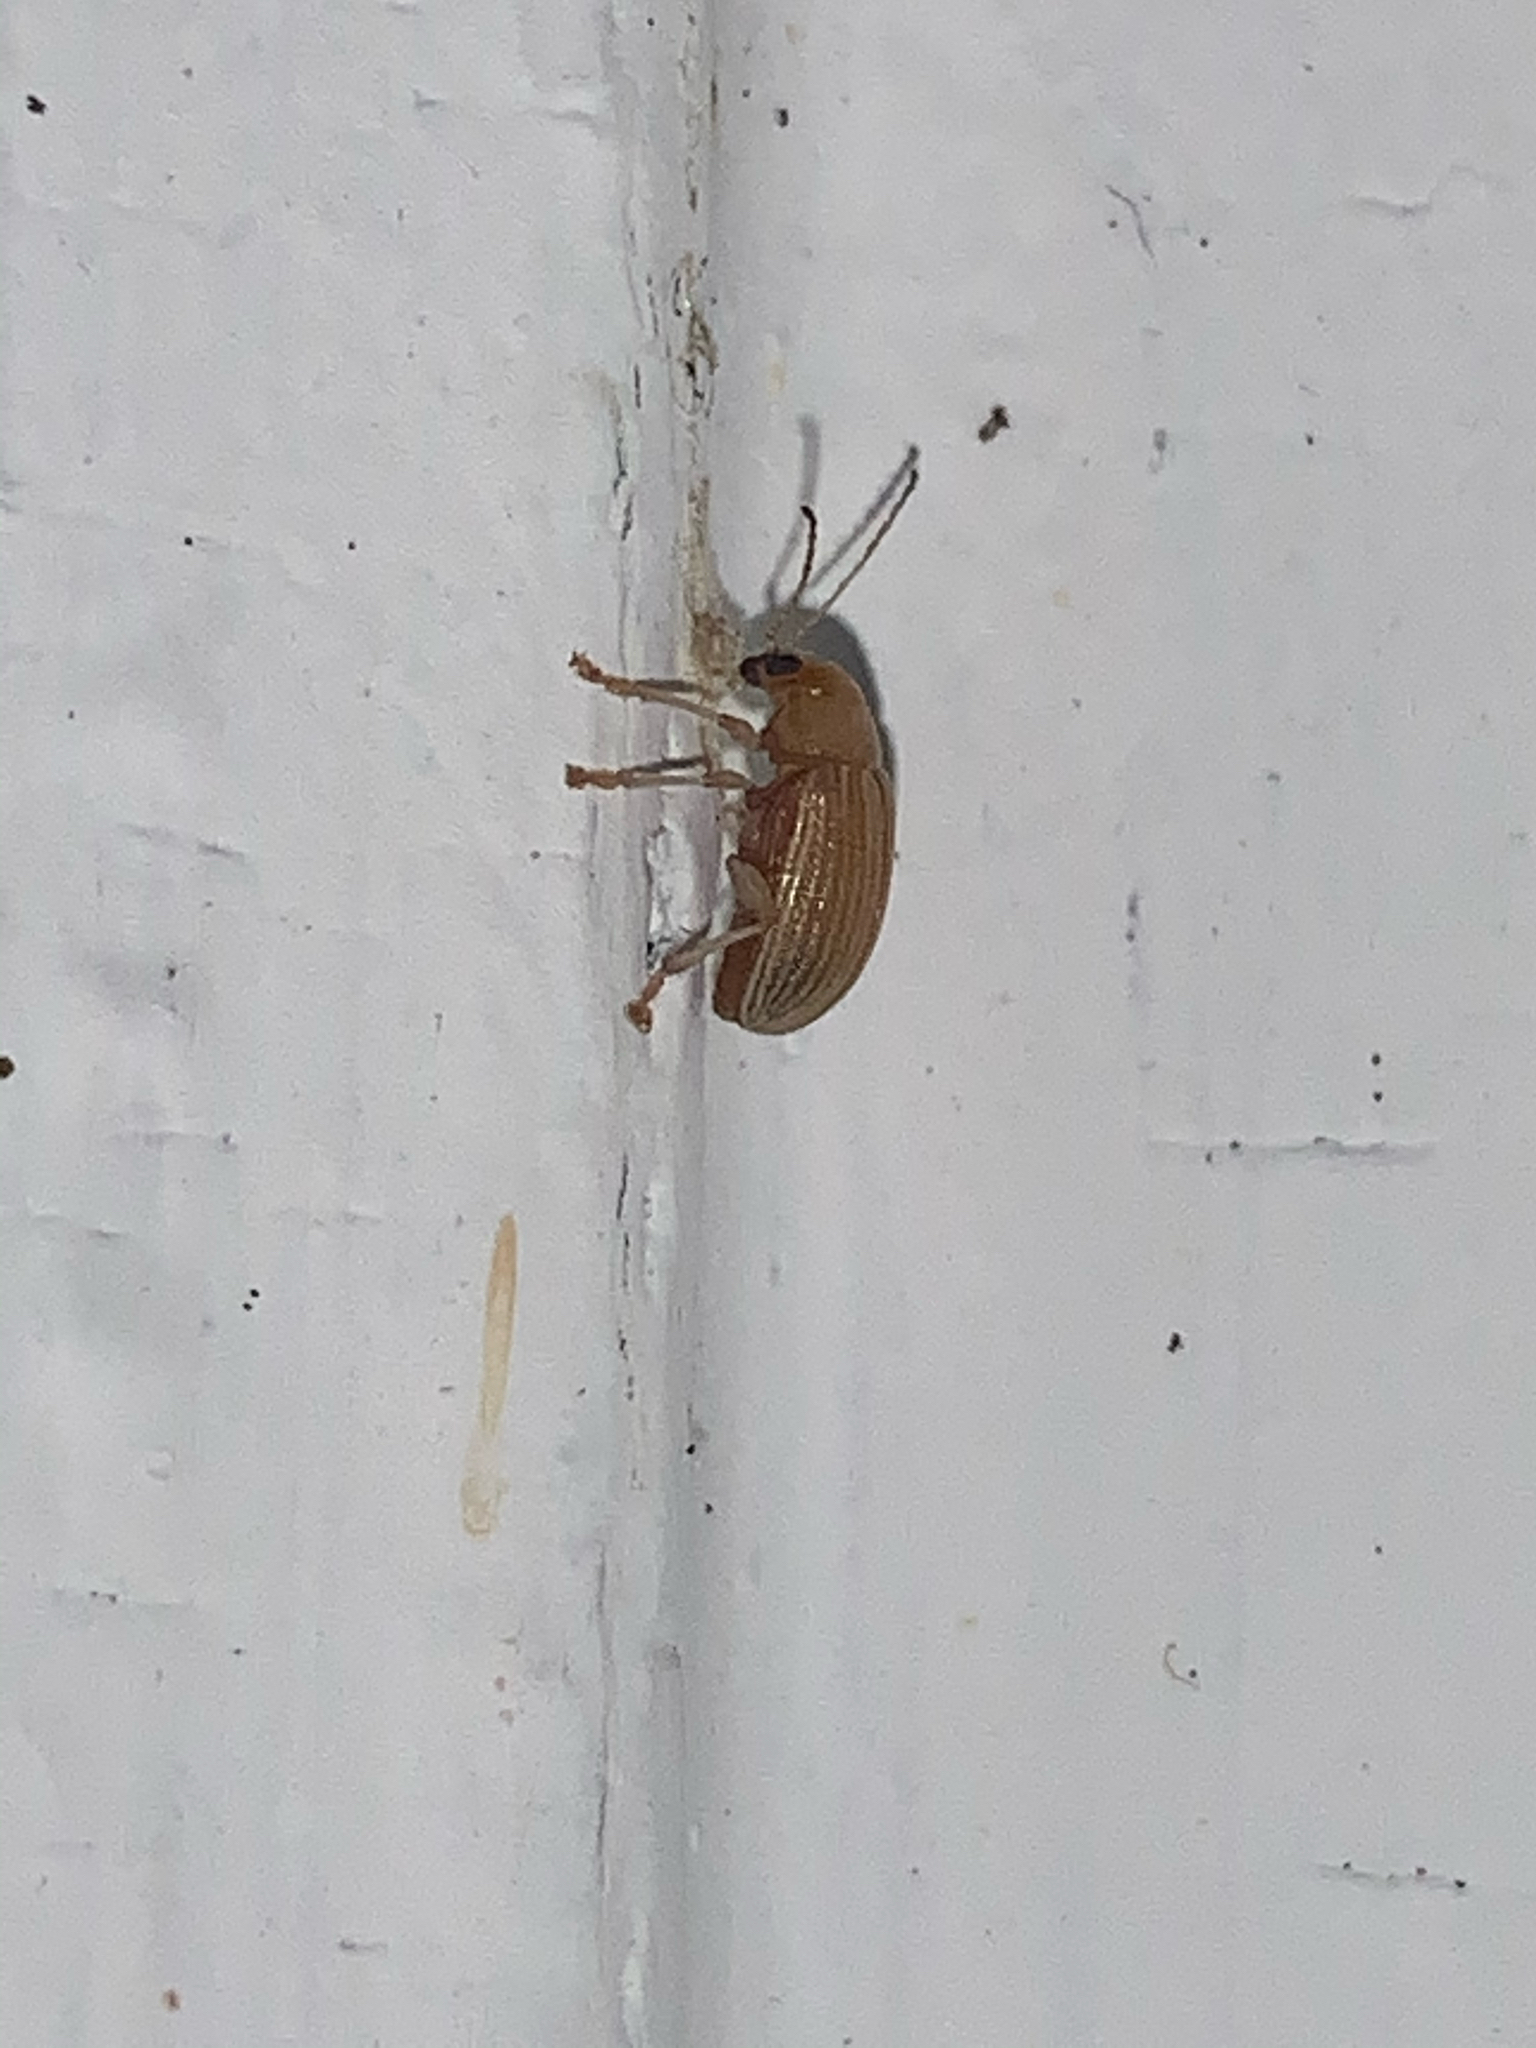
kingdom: Animalia
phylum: Arthropoda
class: Insecta
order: Coleoptera
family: Chrysomelidae
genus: Colaspis
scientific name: Colaspis brunnea
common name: Grape colaspis
